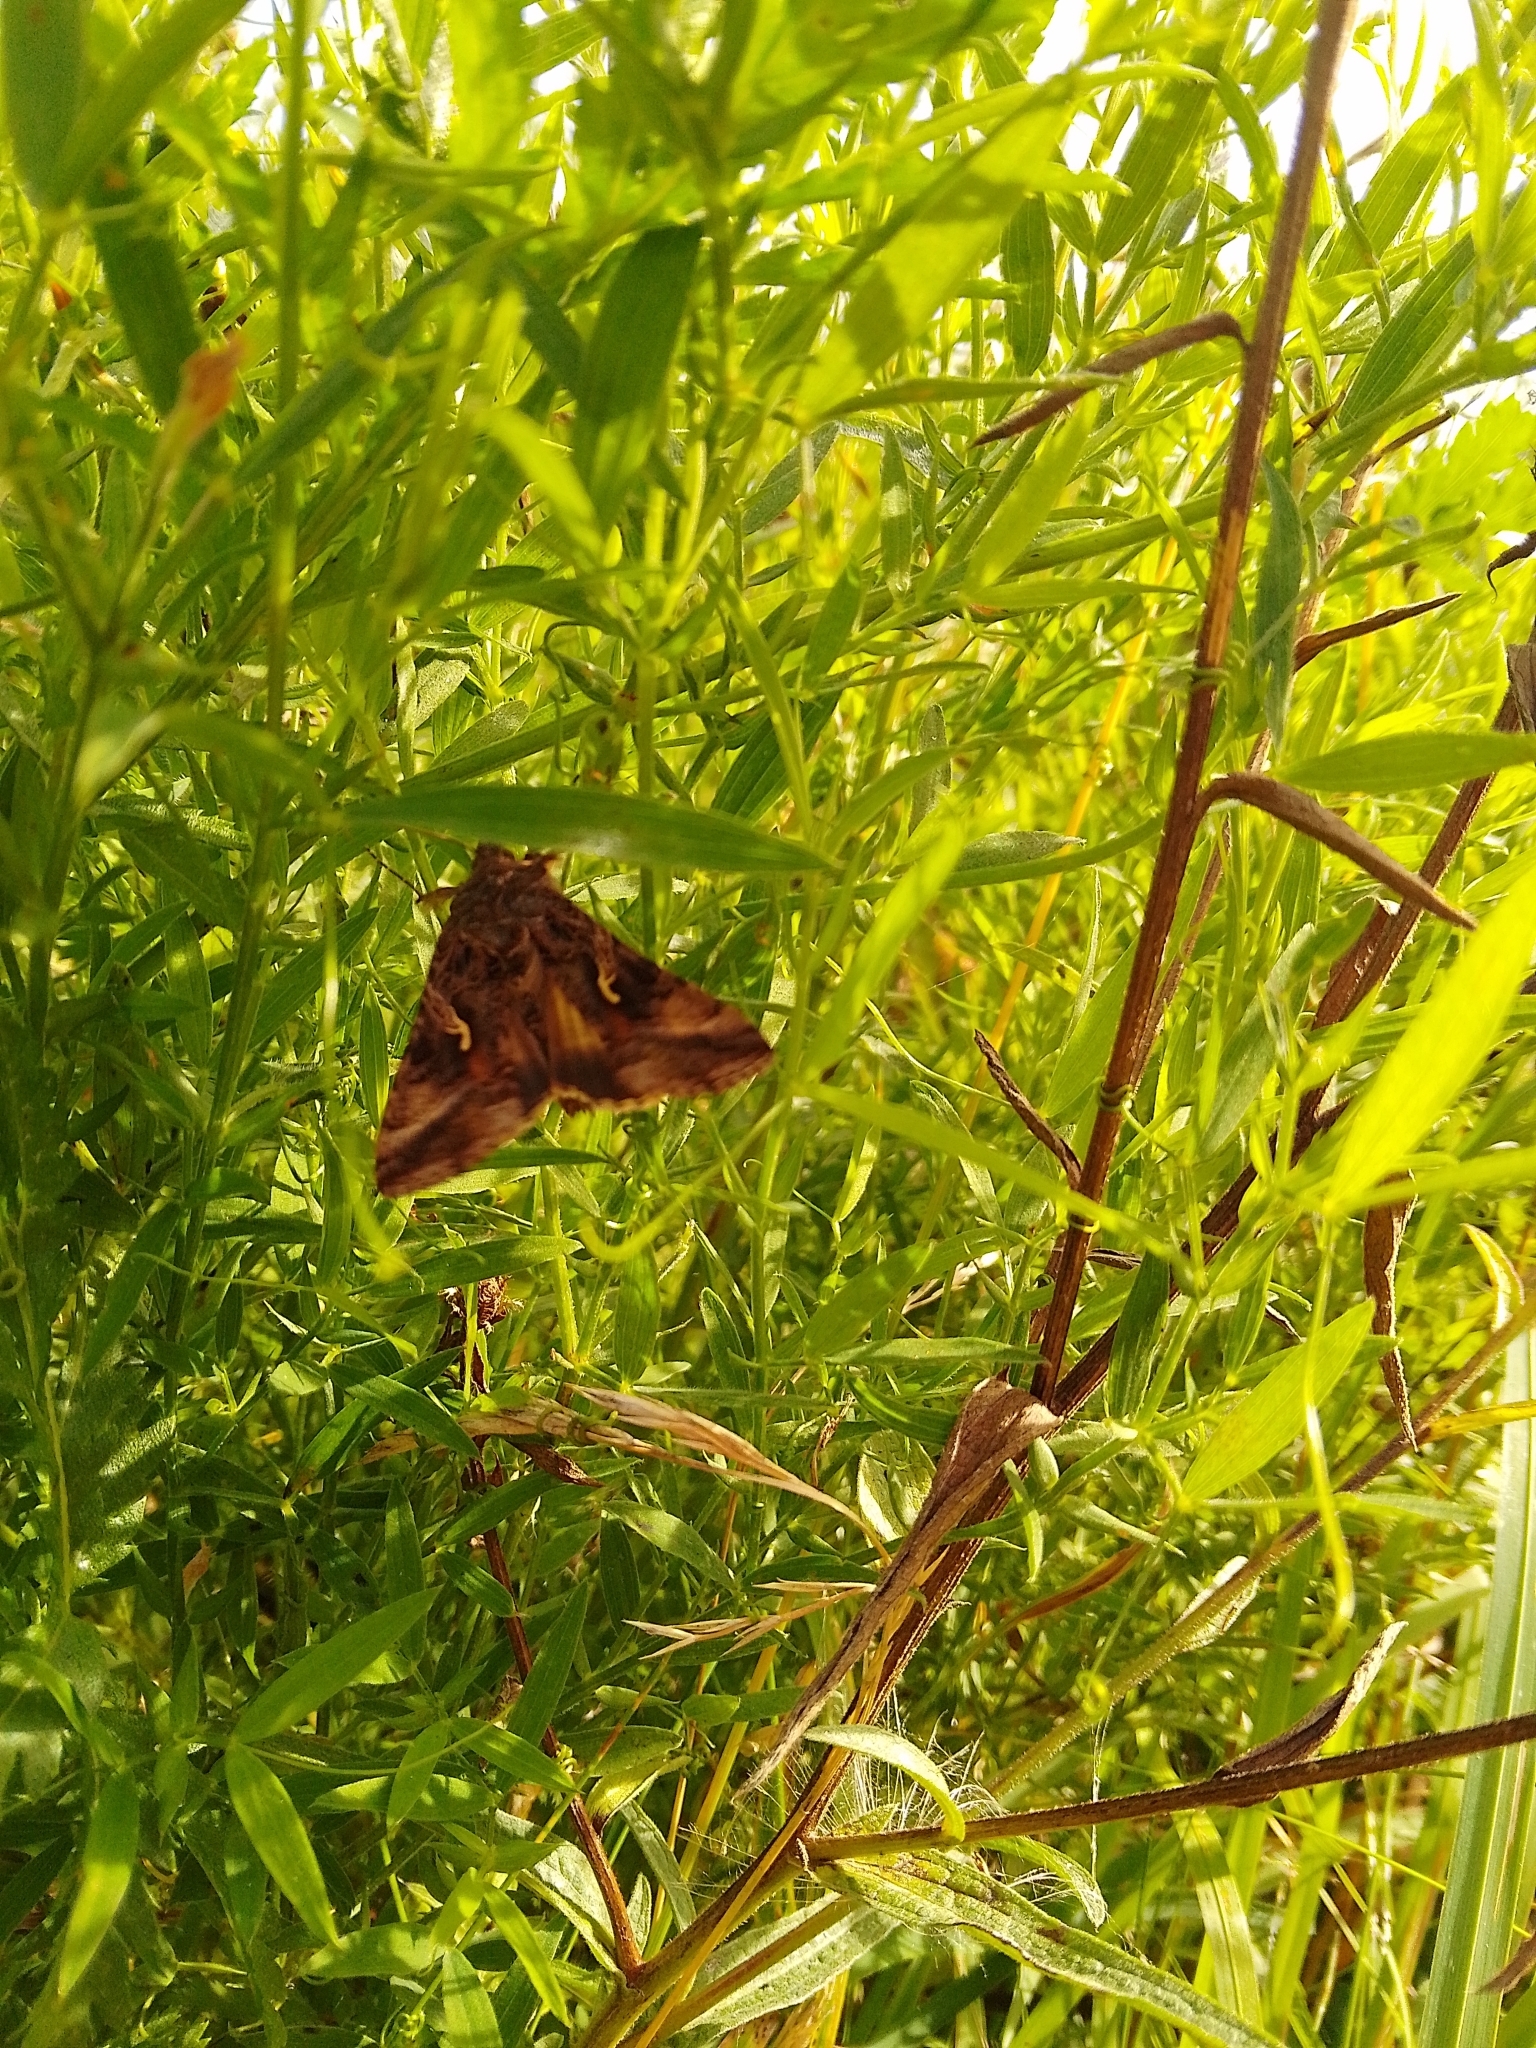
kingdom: Animalia
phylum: Arthropoda
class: Insecta
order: Lepidoptera
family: Noctuidae
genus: Autographa
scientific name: Autographa gamma
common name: Silver y
